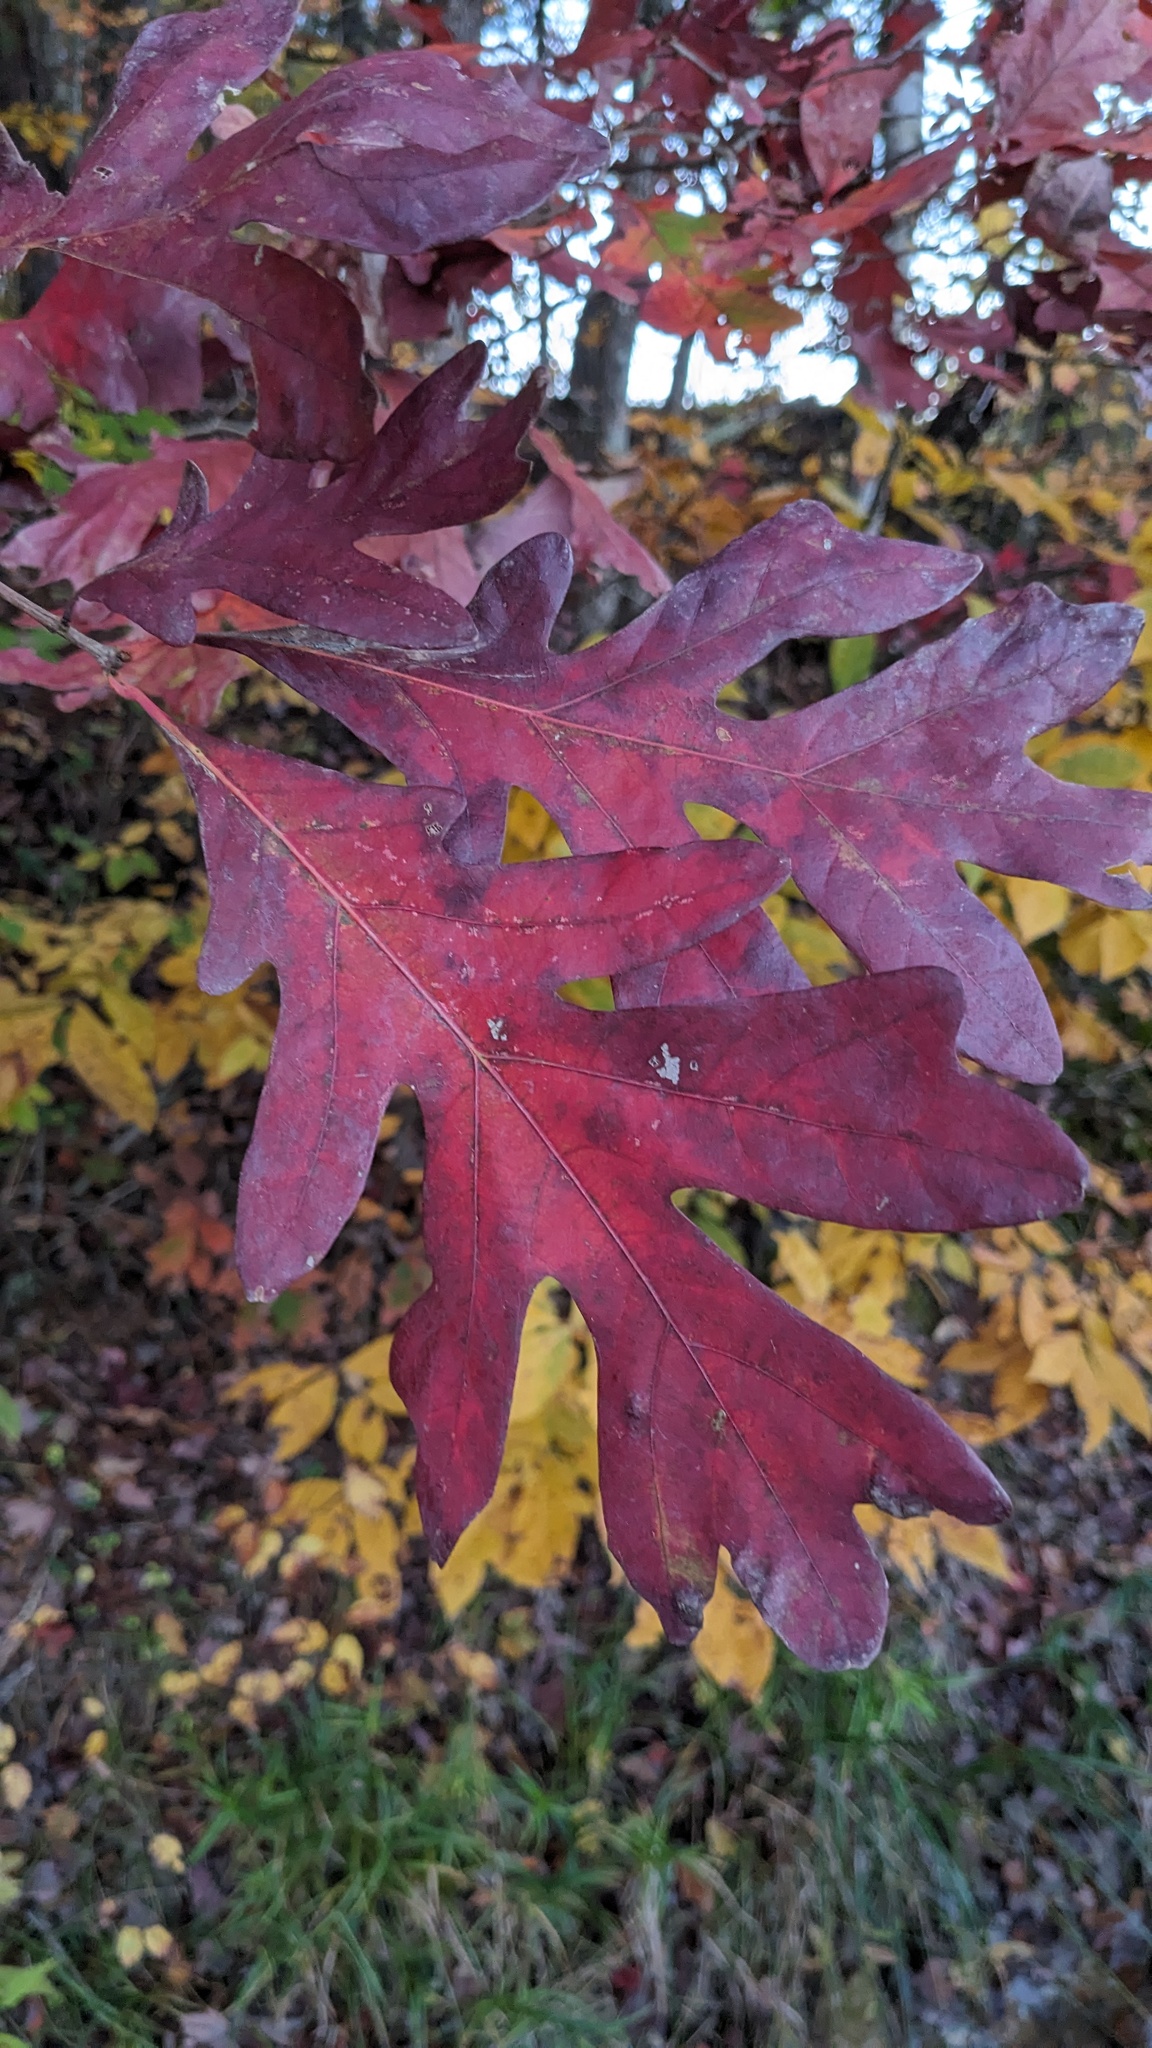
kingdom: Plantae
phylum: Tracheophyta
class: Magnoliopsida
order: Fagales
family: Fagaceae
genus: Quercus
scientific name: Quercus alba
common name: White oak
